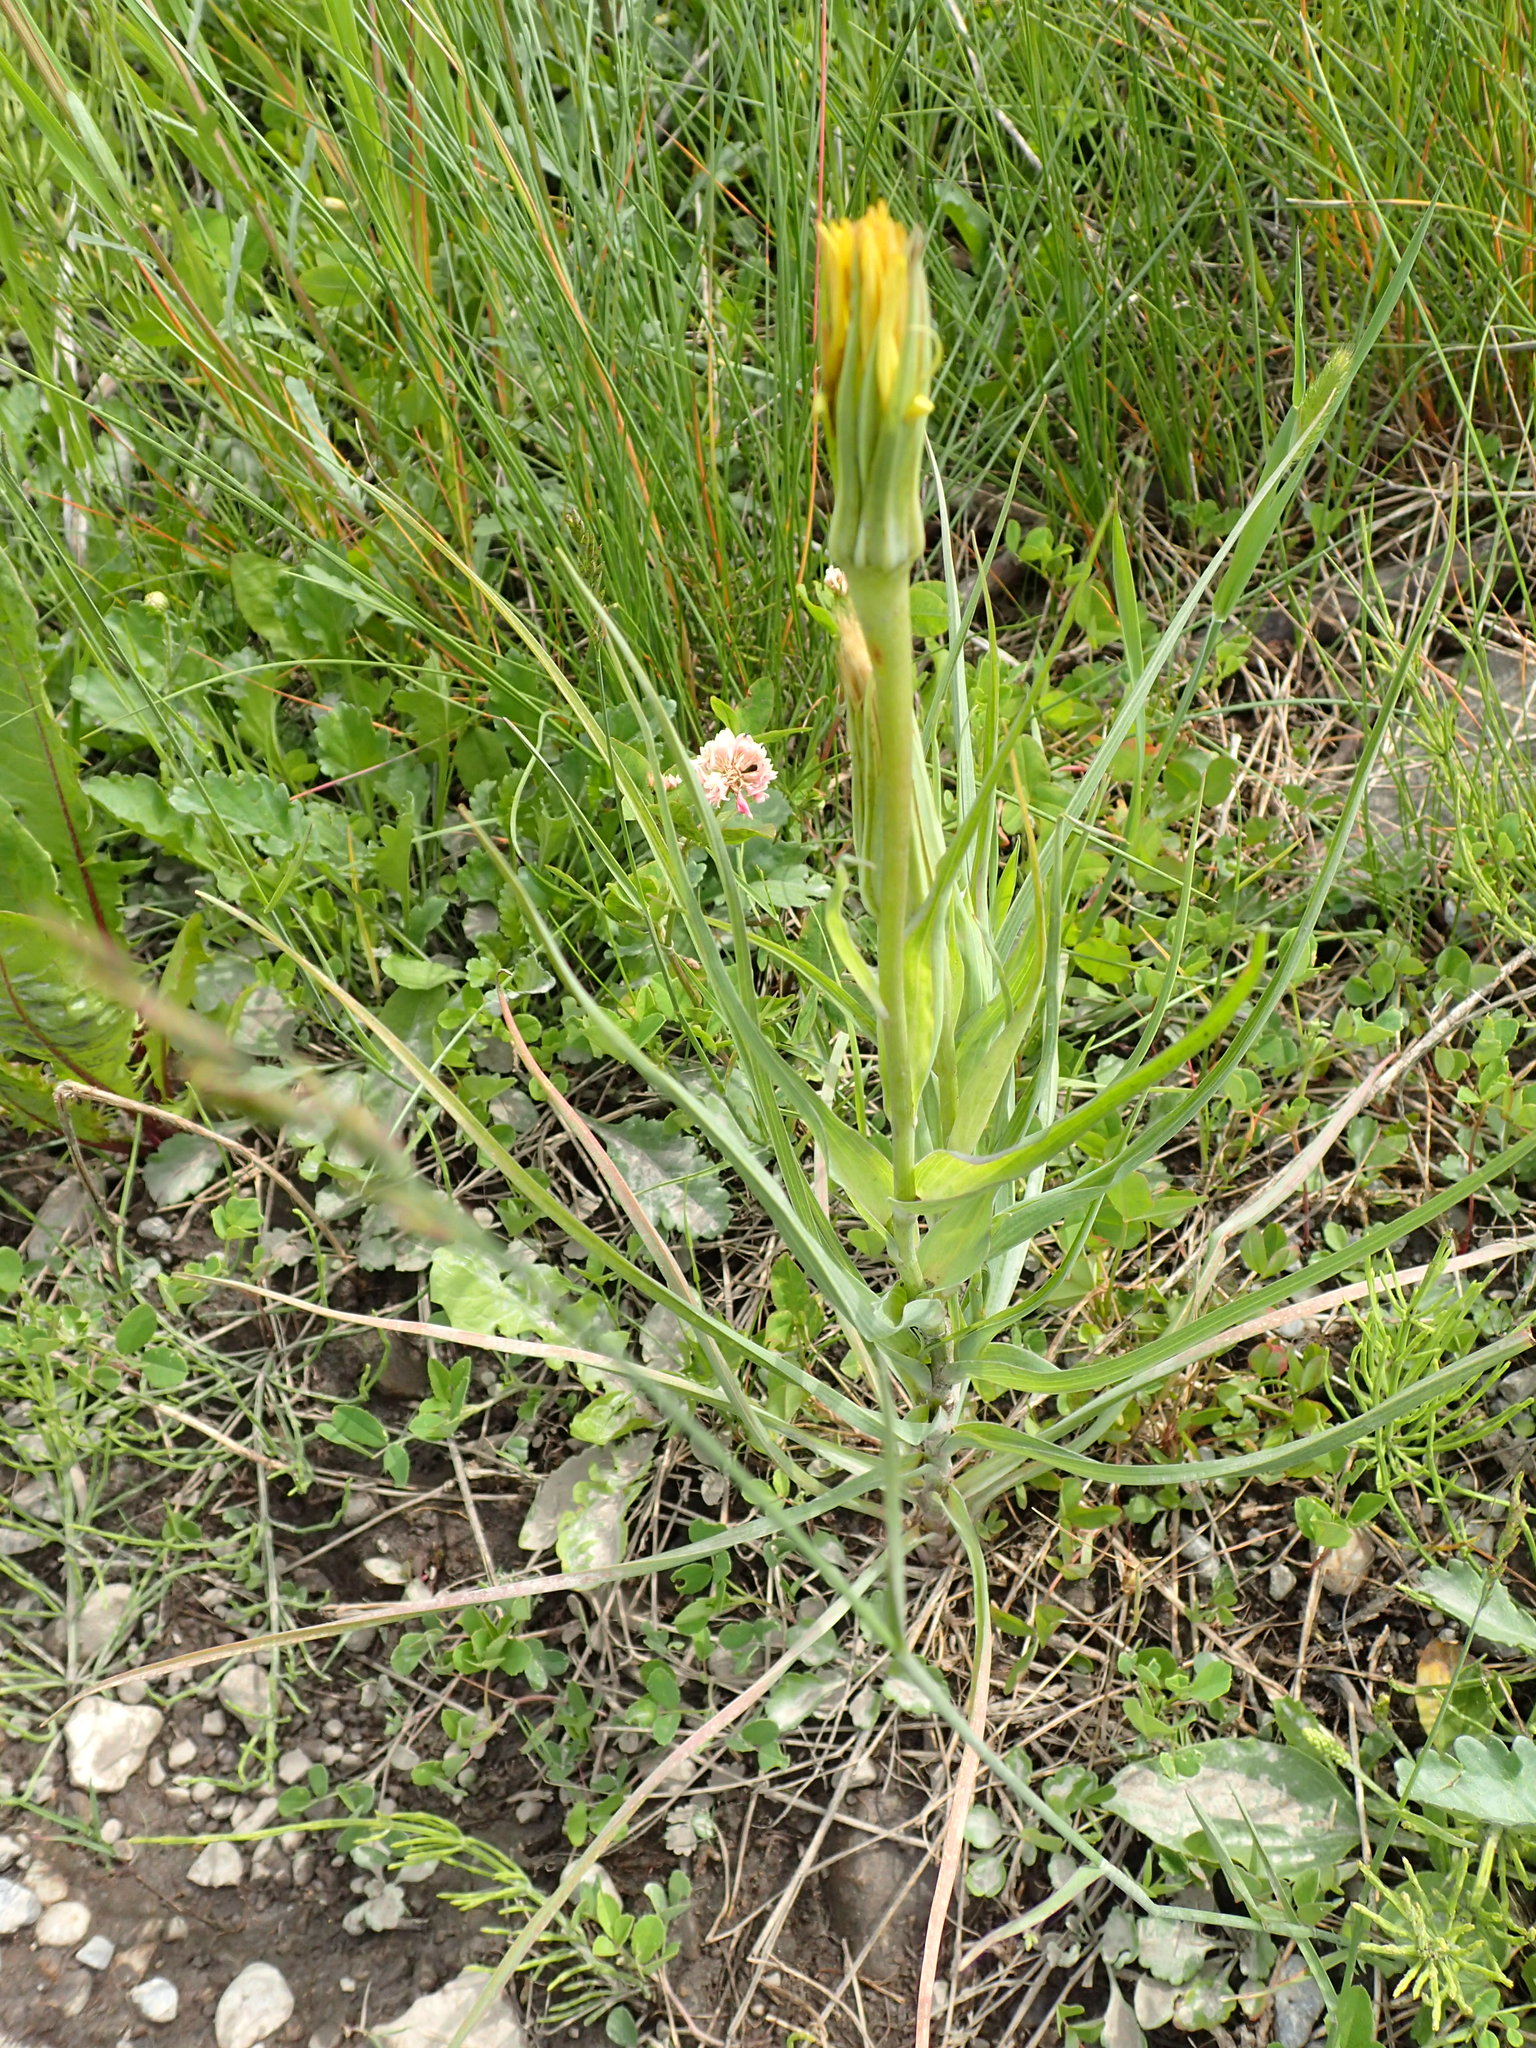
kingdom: Plantae
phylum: Tracheophyta
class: Magnoliopsida
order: Asterales
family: Asteraceae
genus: Tragopogon
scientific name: Tragopogon dubius
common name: Yellow salsify
